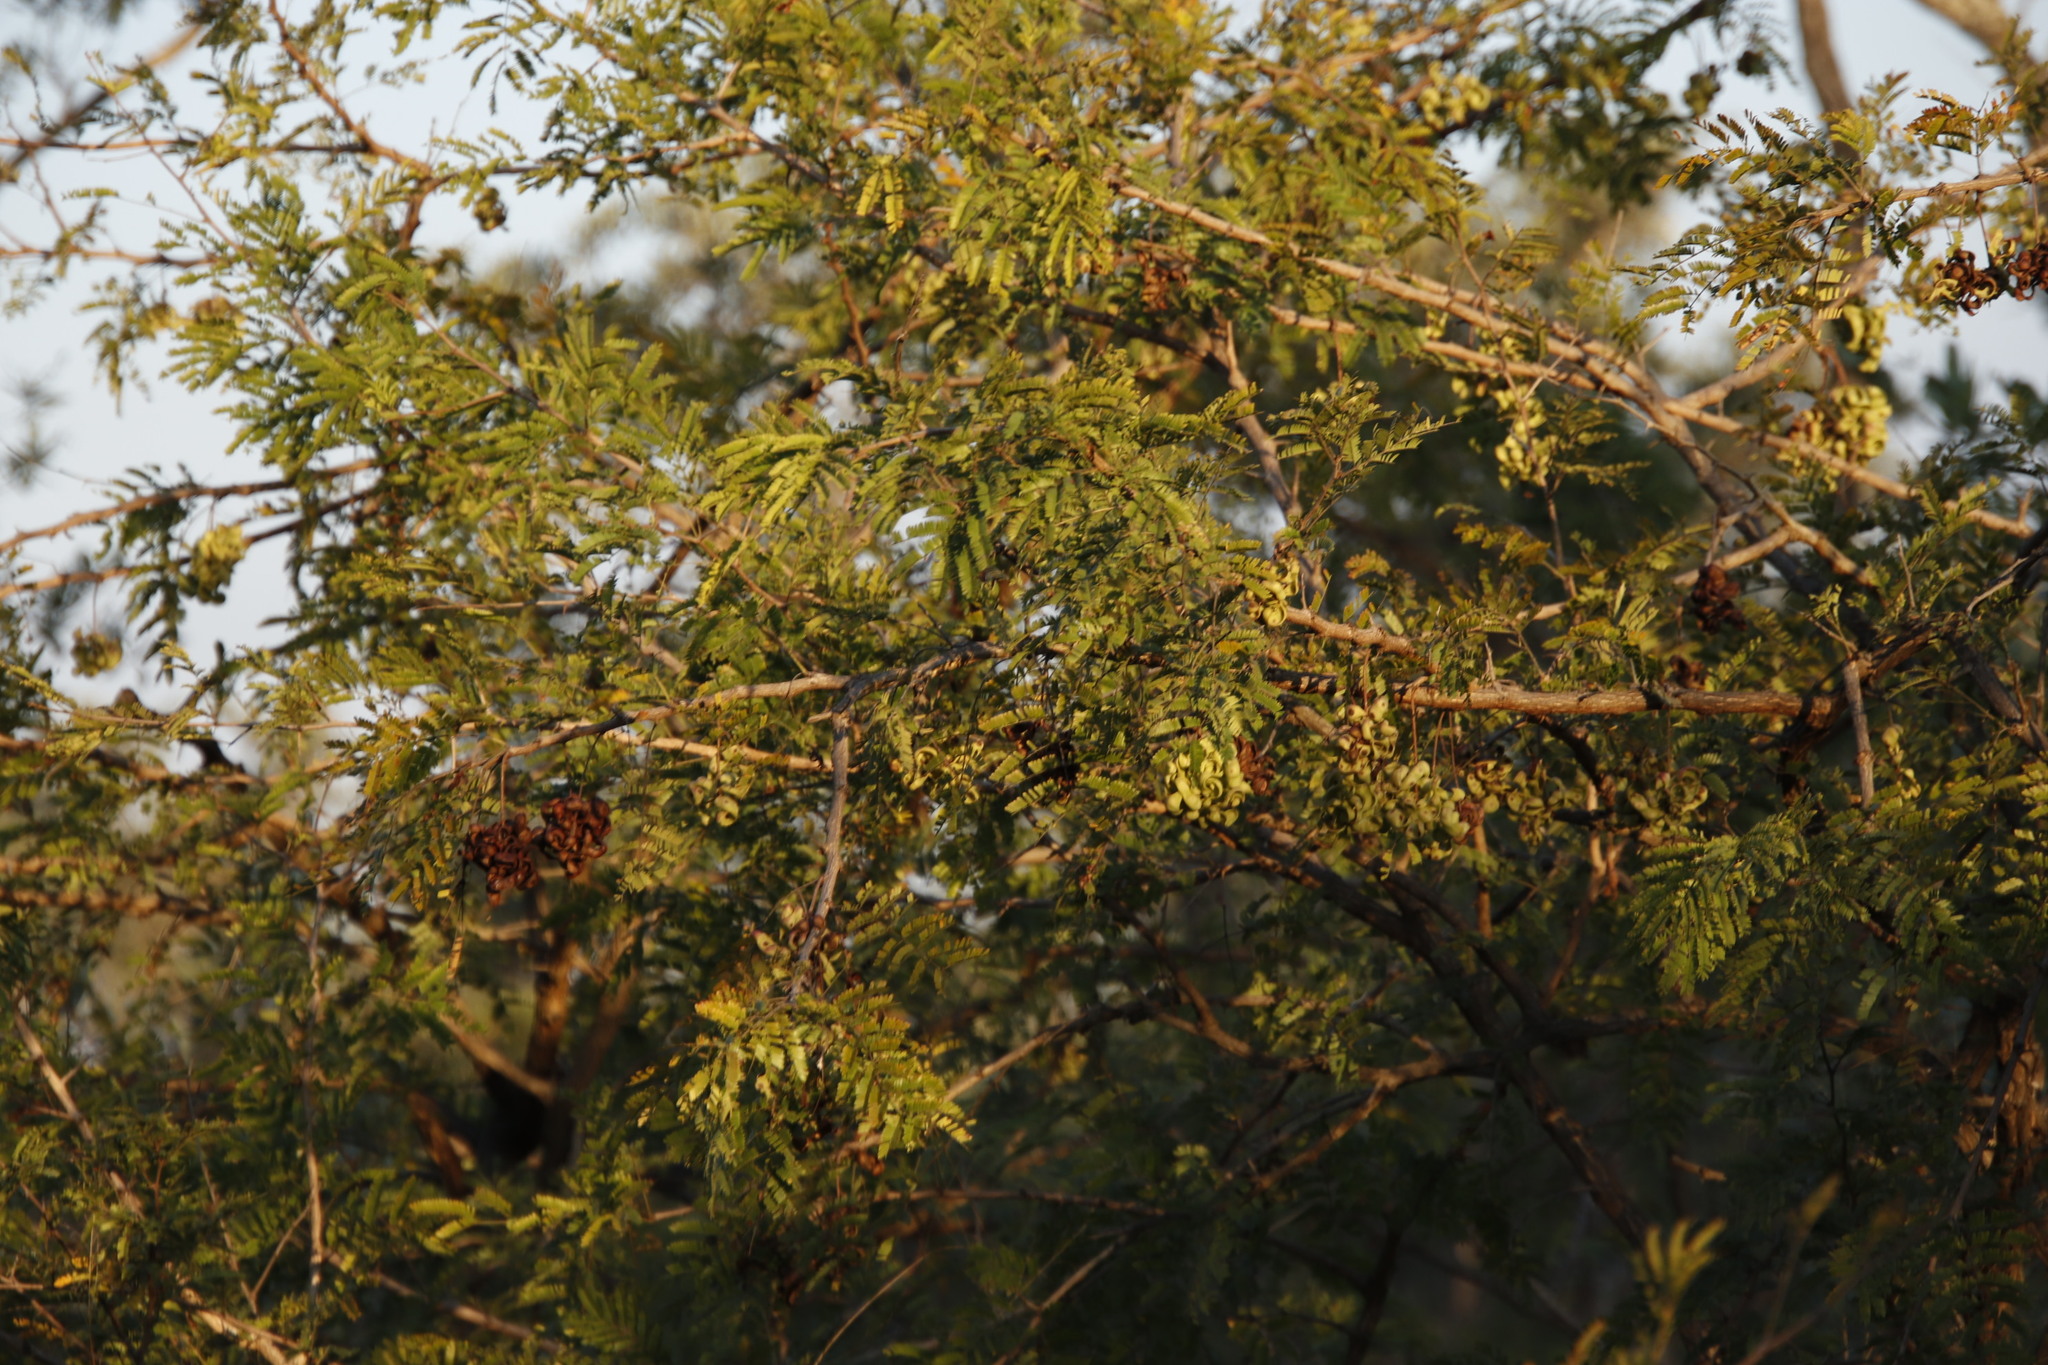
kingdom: Plantae
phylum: Tracheophyta
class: Magnoliopsida
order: Fabales
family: Fabaceae
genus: Dichrostachys
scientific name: Dichrostachys cinerea
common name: Sicklebush
